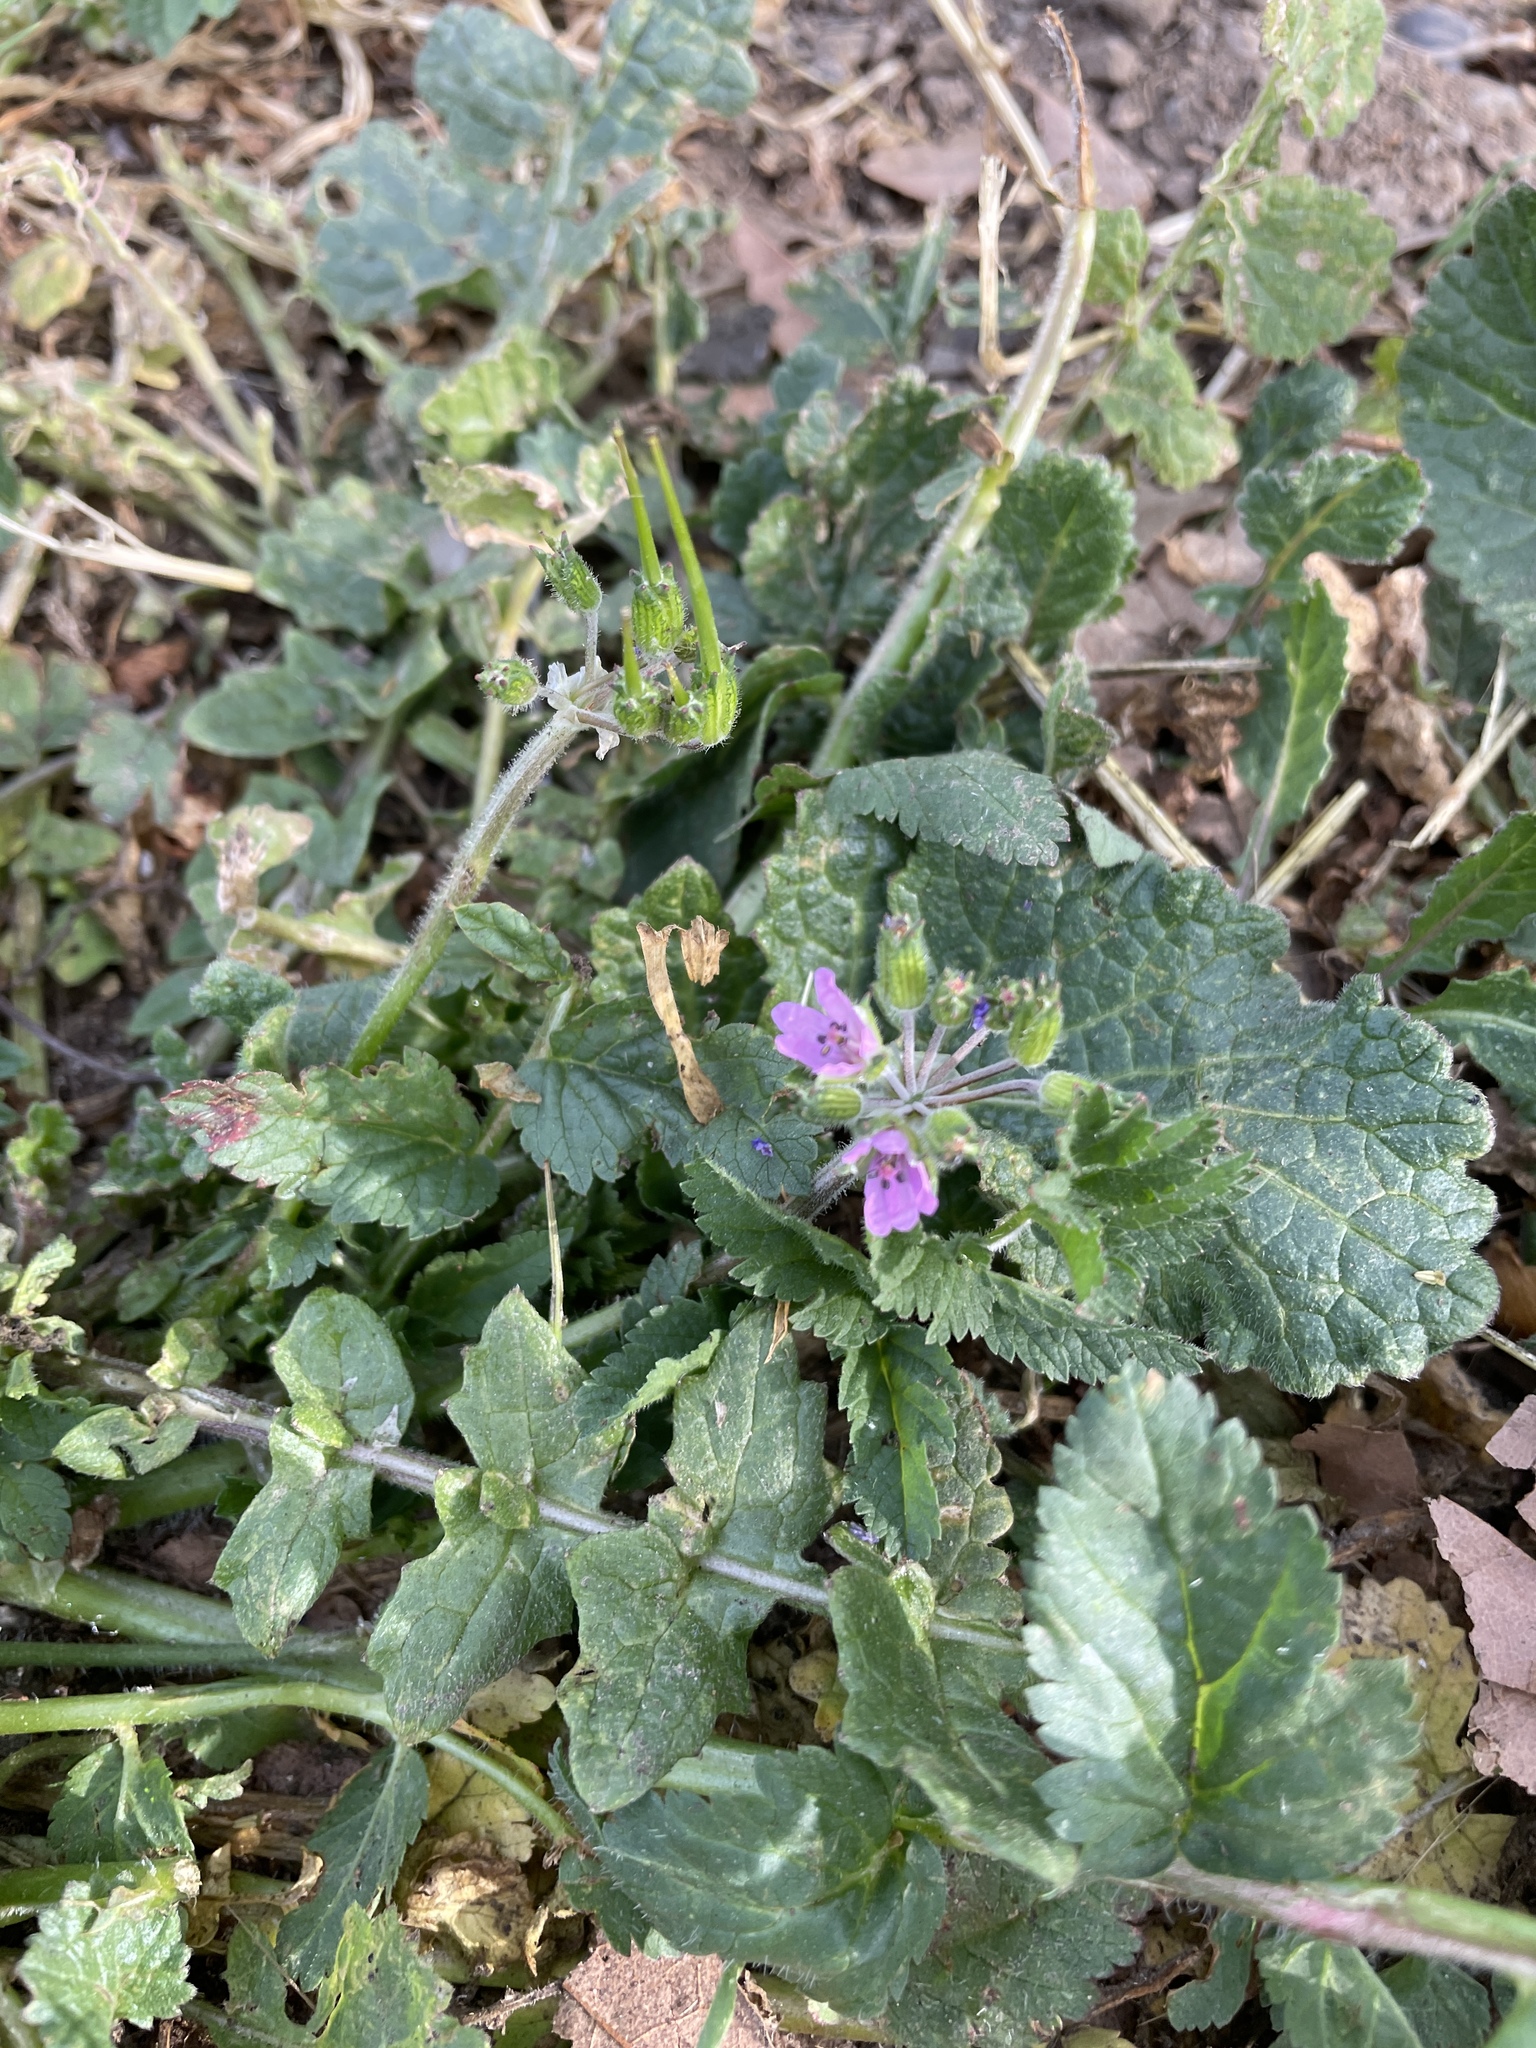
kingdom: Plantae
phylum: Tracheophyta
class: Magnoliopsida
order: Geraniales
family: Geraniaceae
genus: Erodium
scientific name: Erodium moschatum
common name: Musk stork's-bill
